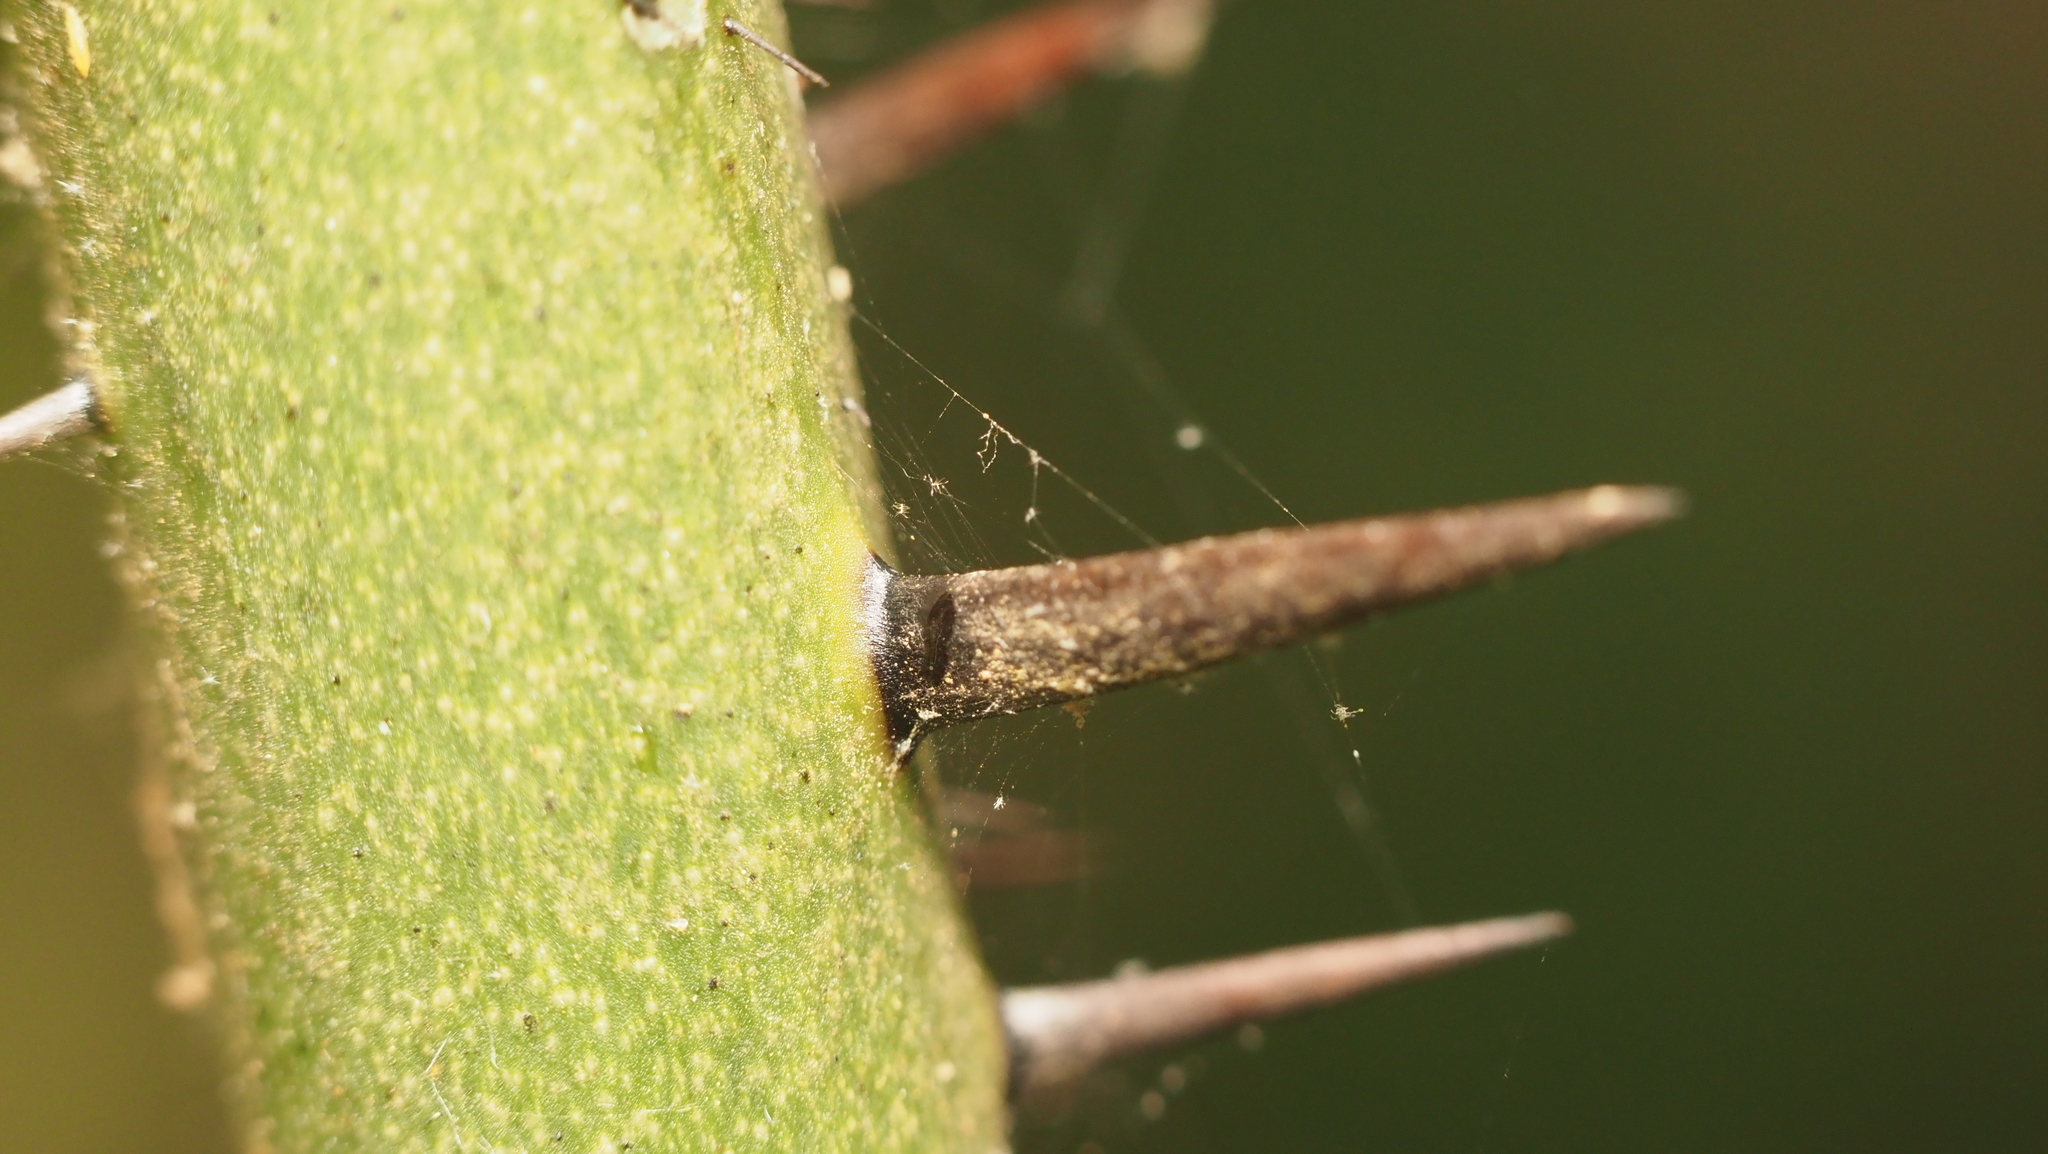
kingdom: Plantae
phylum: Tracheophyta
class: Liliopsida
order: Liliales
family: Smilacaceae
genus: Smilax
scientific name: Smilax tamnoides
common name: Hellfetter
